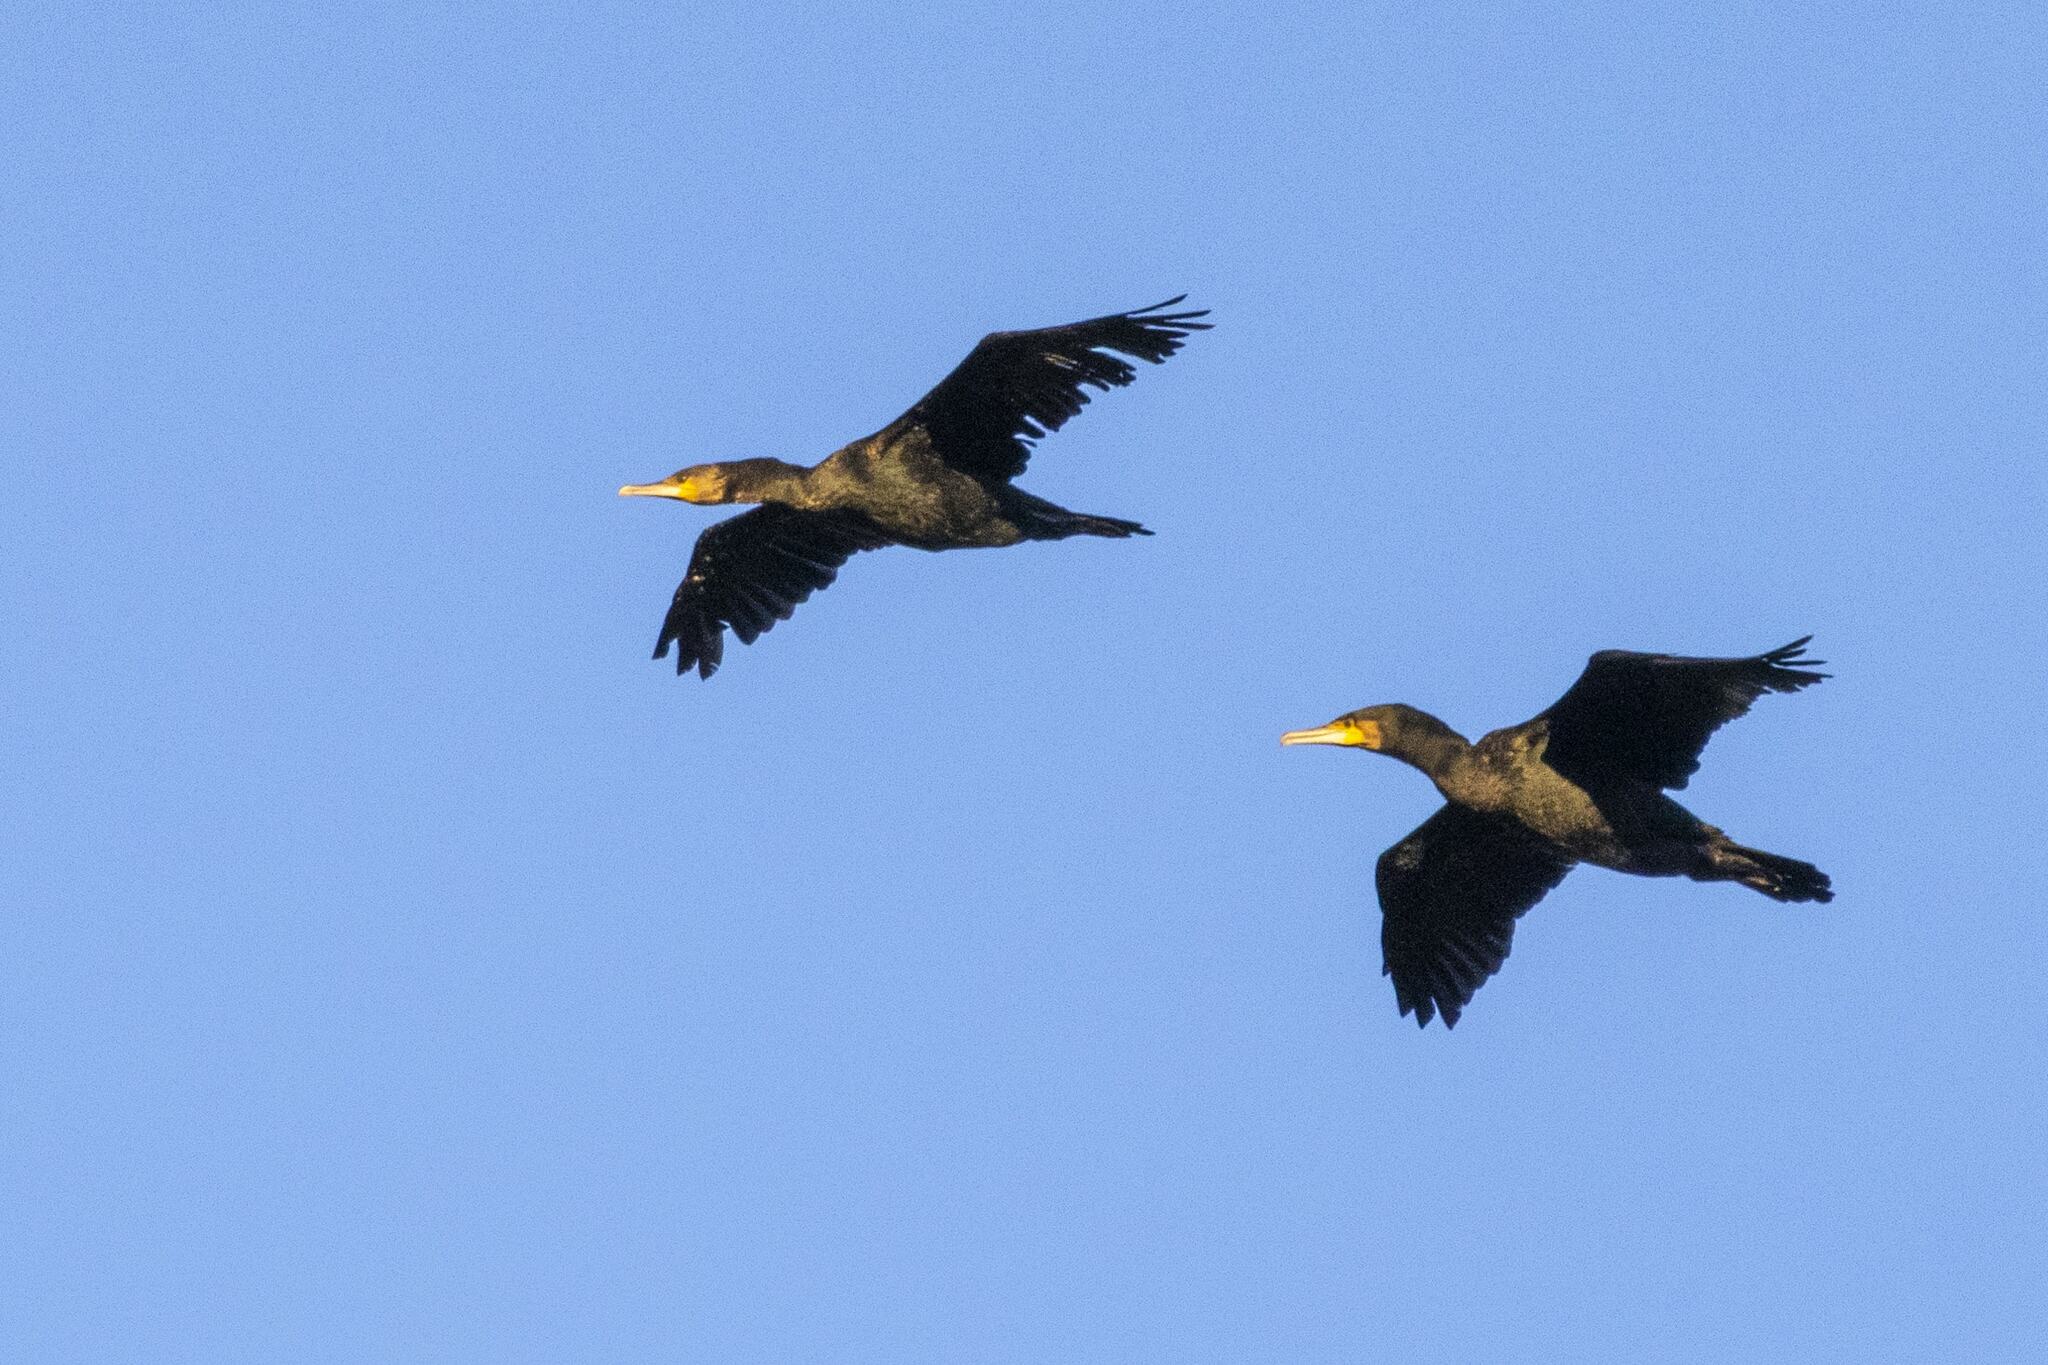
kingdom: Animalia
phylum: Chordata
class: Aves
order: Suliformes
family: Phalacrocoracidae
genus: Phalacrocorax
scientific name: Phalacrocorax carbo
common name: Great cormorant
